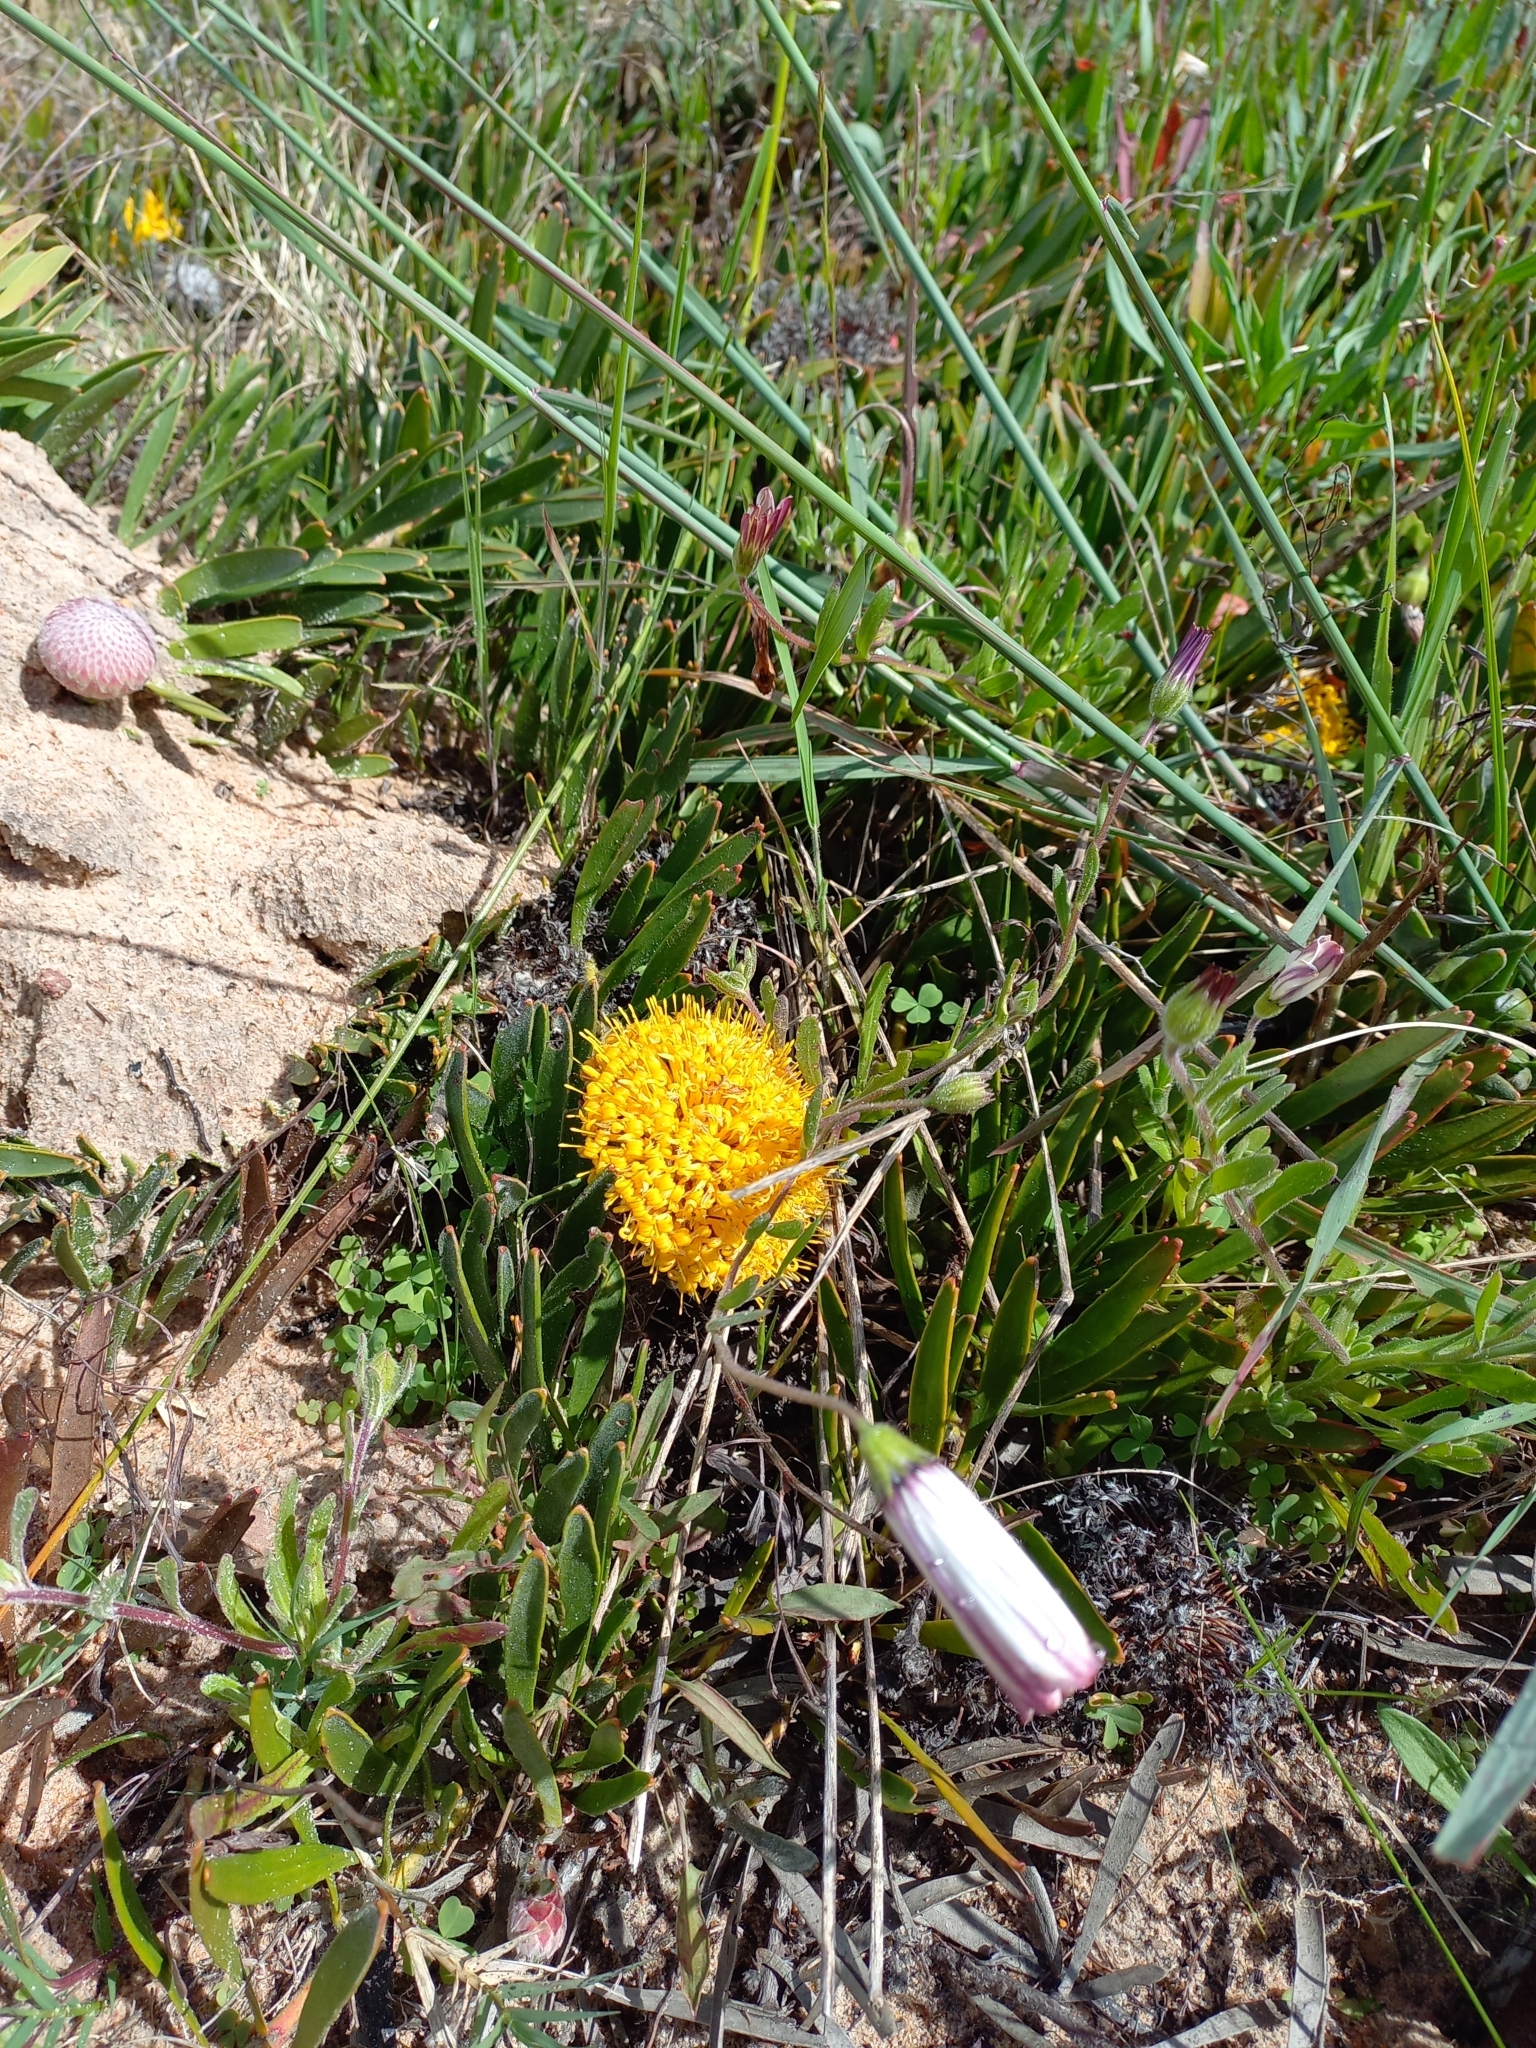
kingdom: Plantae
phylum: Tracheophyta
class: Magnoliopsida
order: Proteales
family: Proteaceae
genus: Leucospermum
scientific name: Leucospermum hypophyllocarpodendron
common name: Snakestem pincushion
